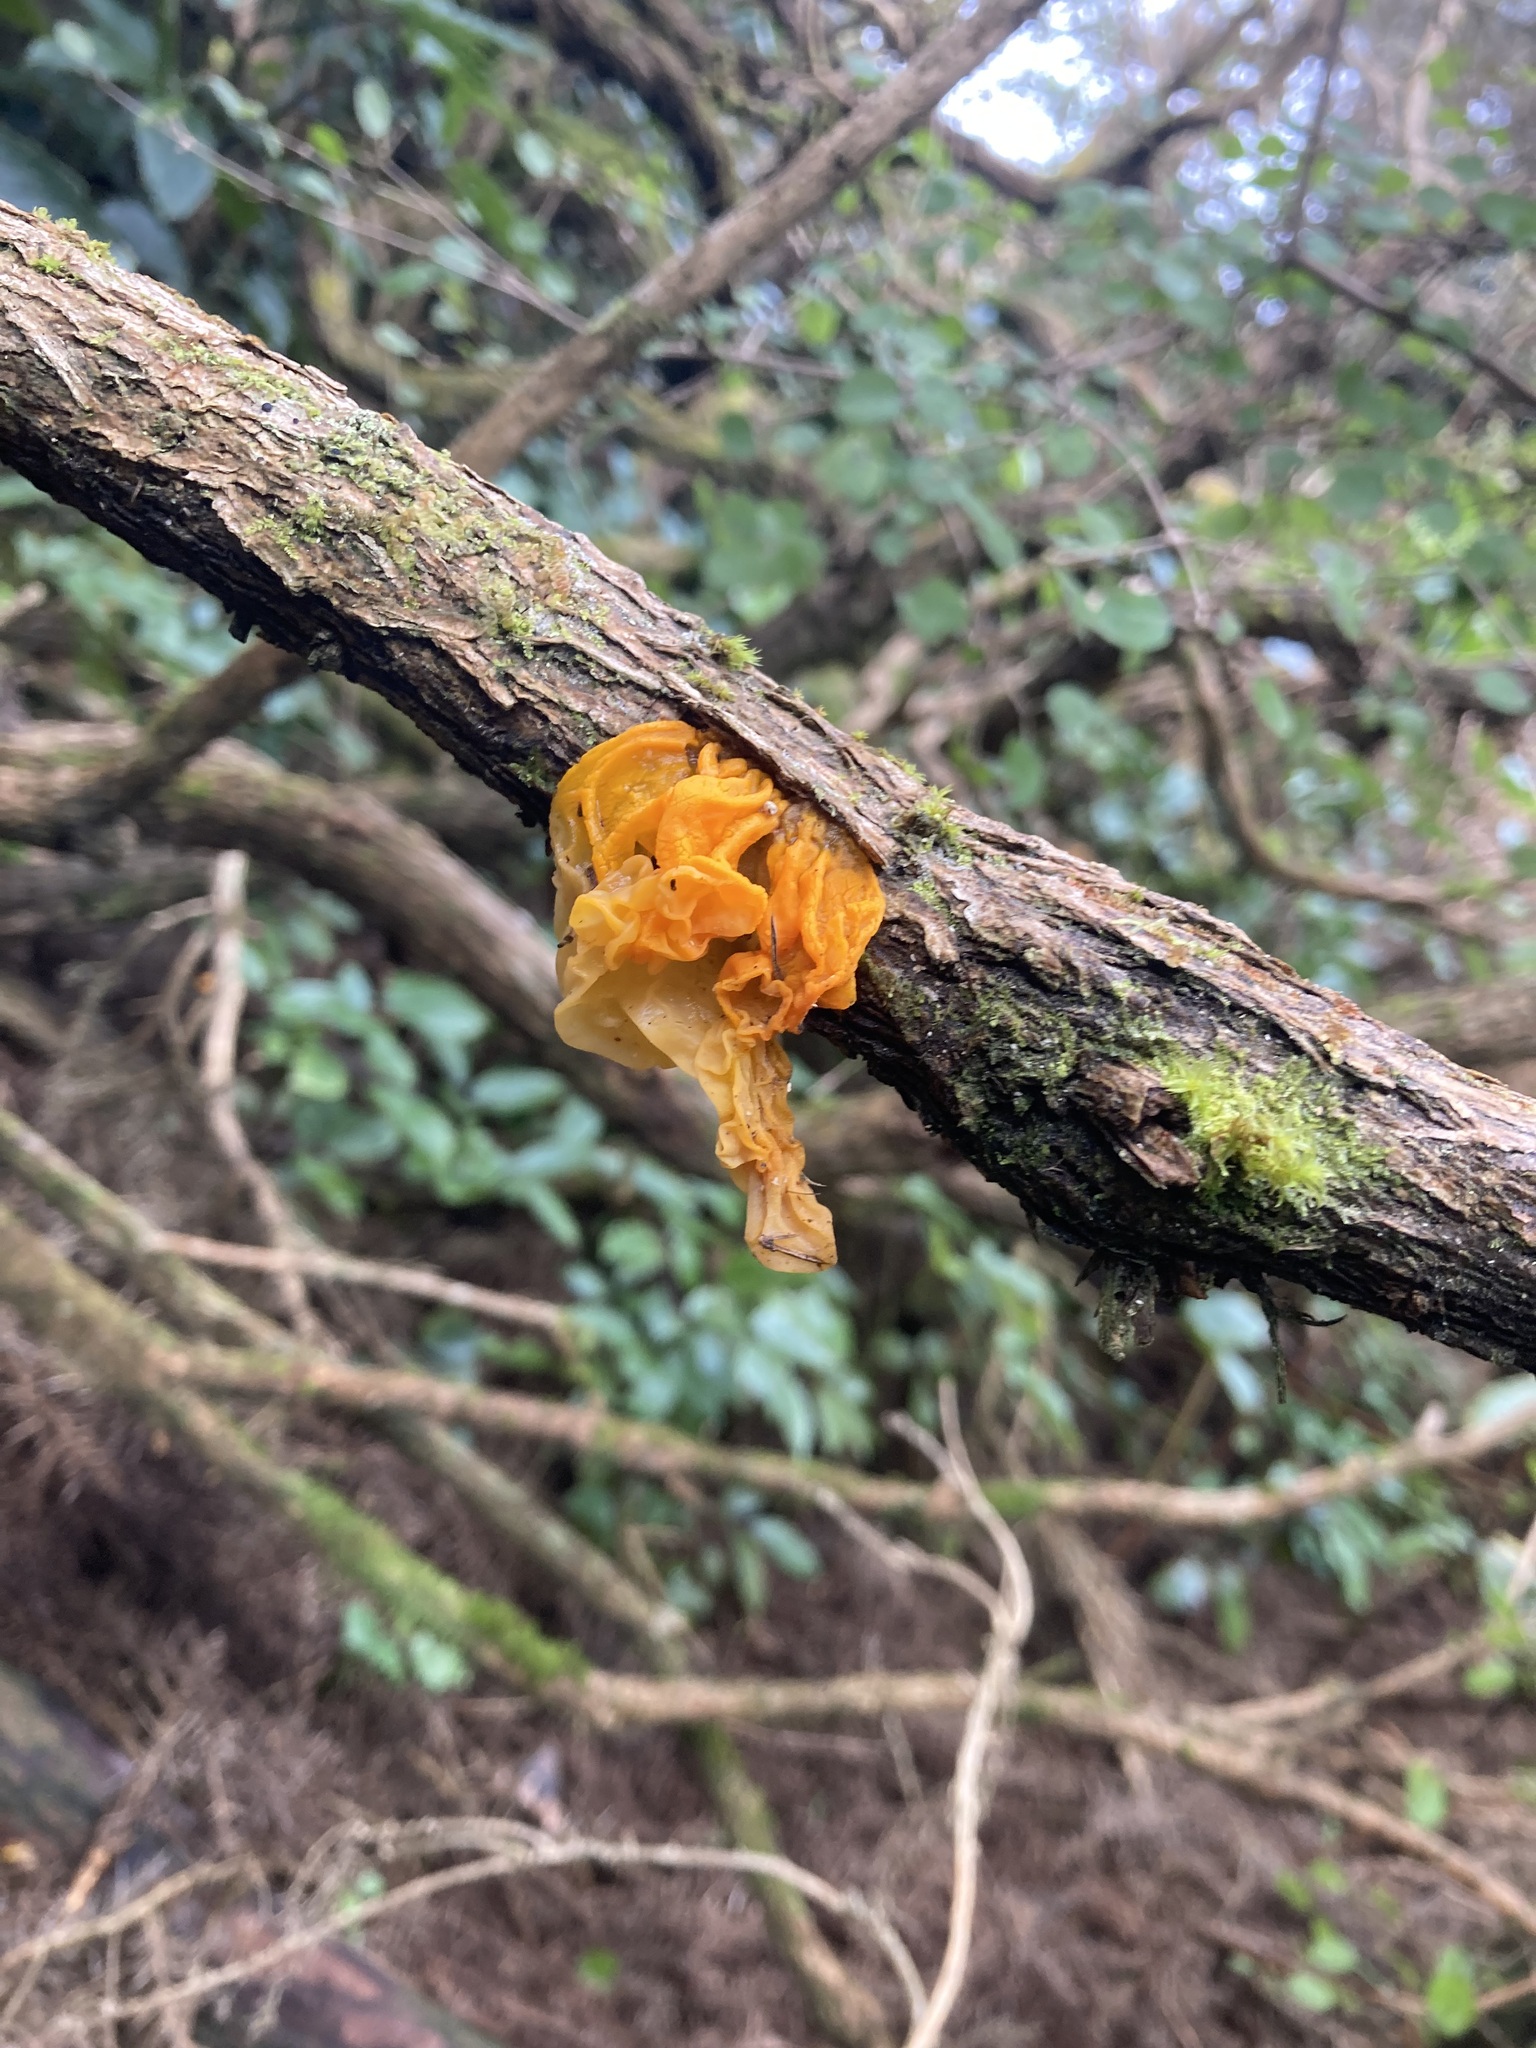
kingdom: Fungi
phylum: Basidiomycota
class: Tremellomycetes
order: Tremellales
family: Tremellaceae
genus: Tremella
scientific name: Tremella mesenterica
